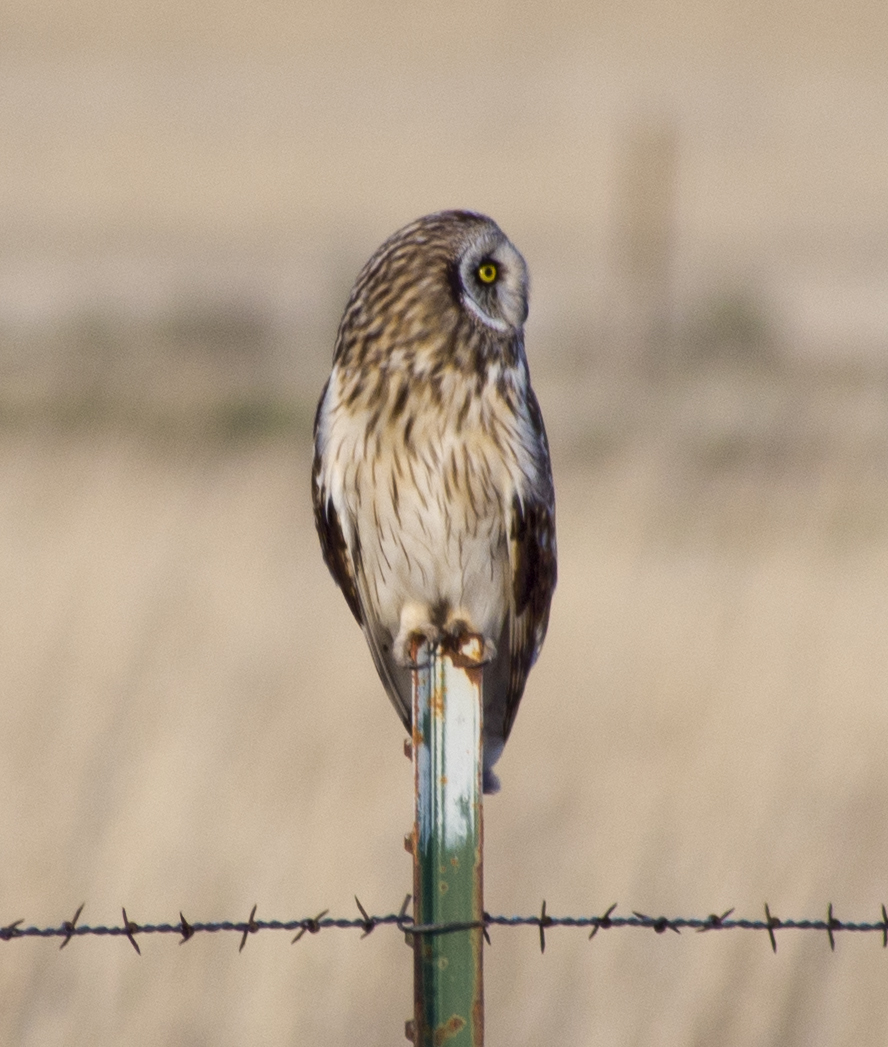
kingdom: Animalia
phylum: Chordata
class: Aves
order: Strigiformes
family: Strigidae
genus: Asio
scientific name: Asio flammeus
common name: Short-eared owl
